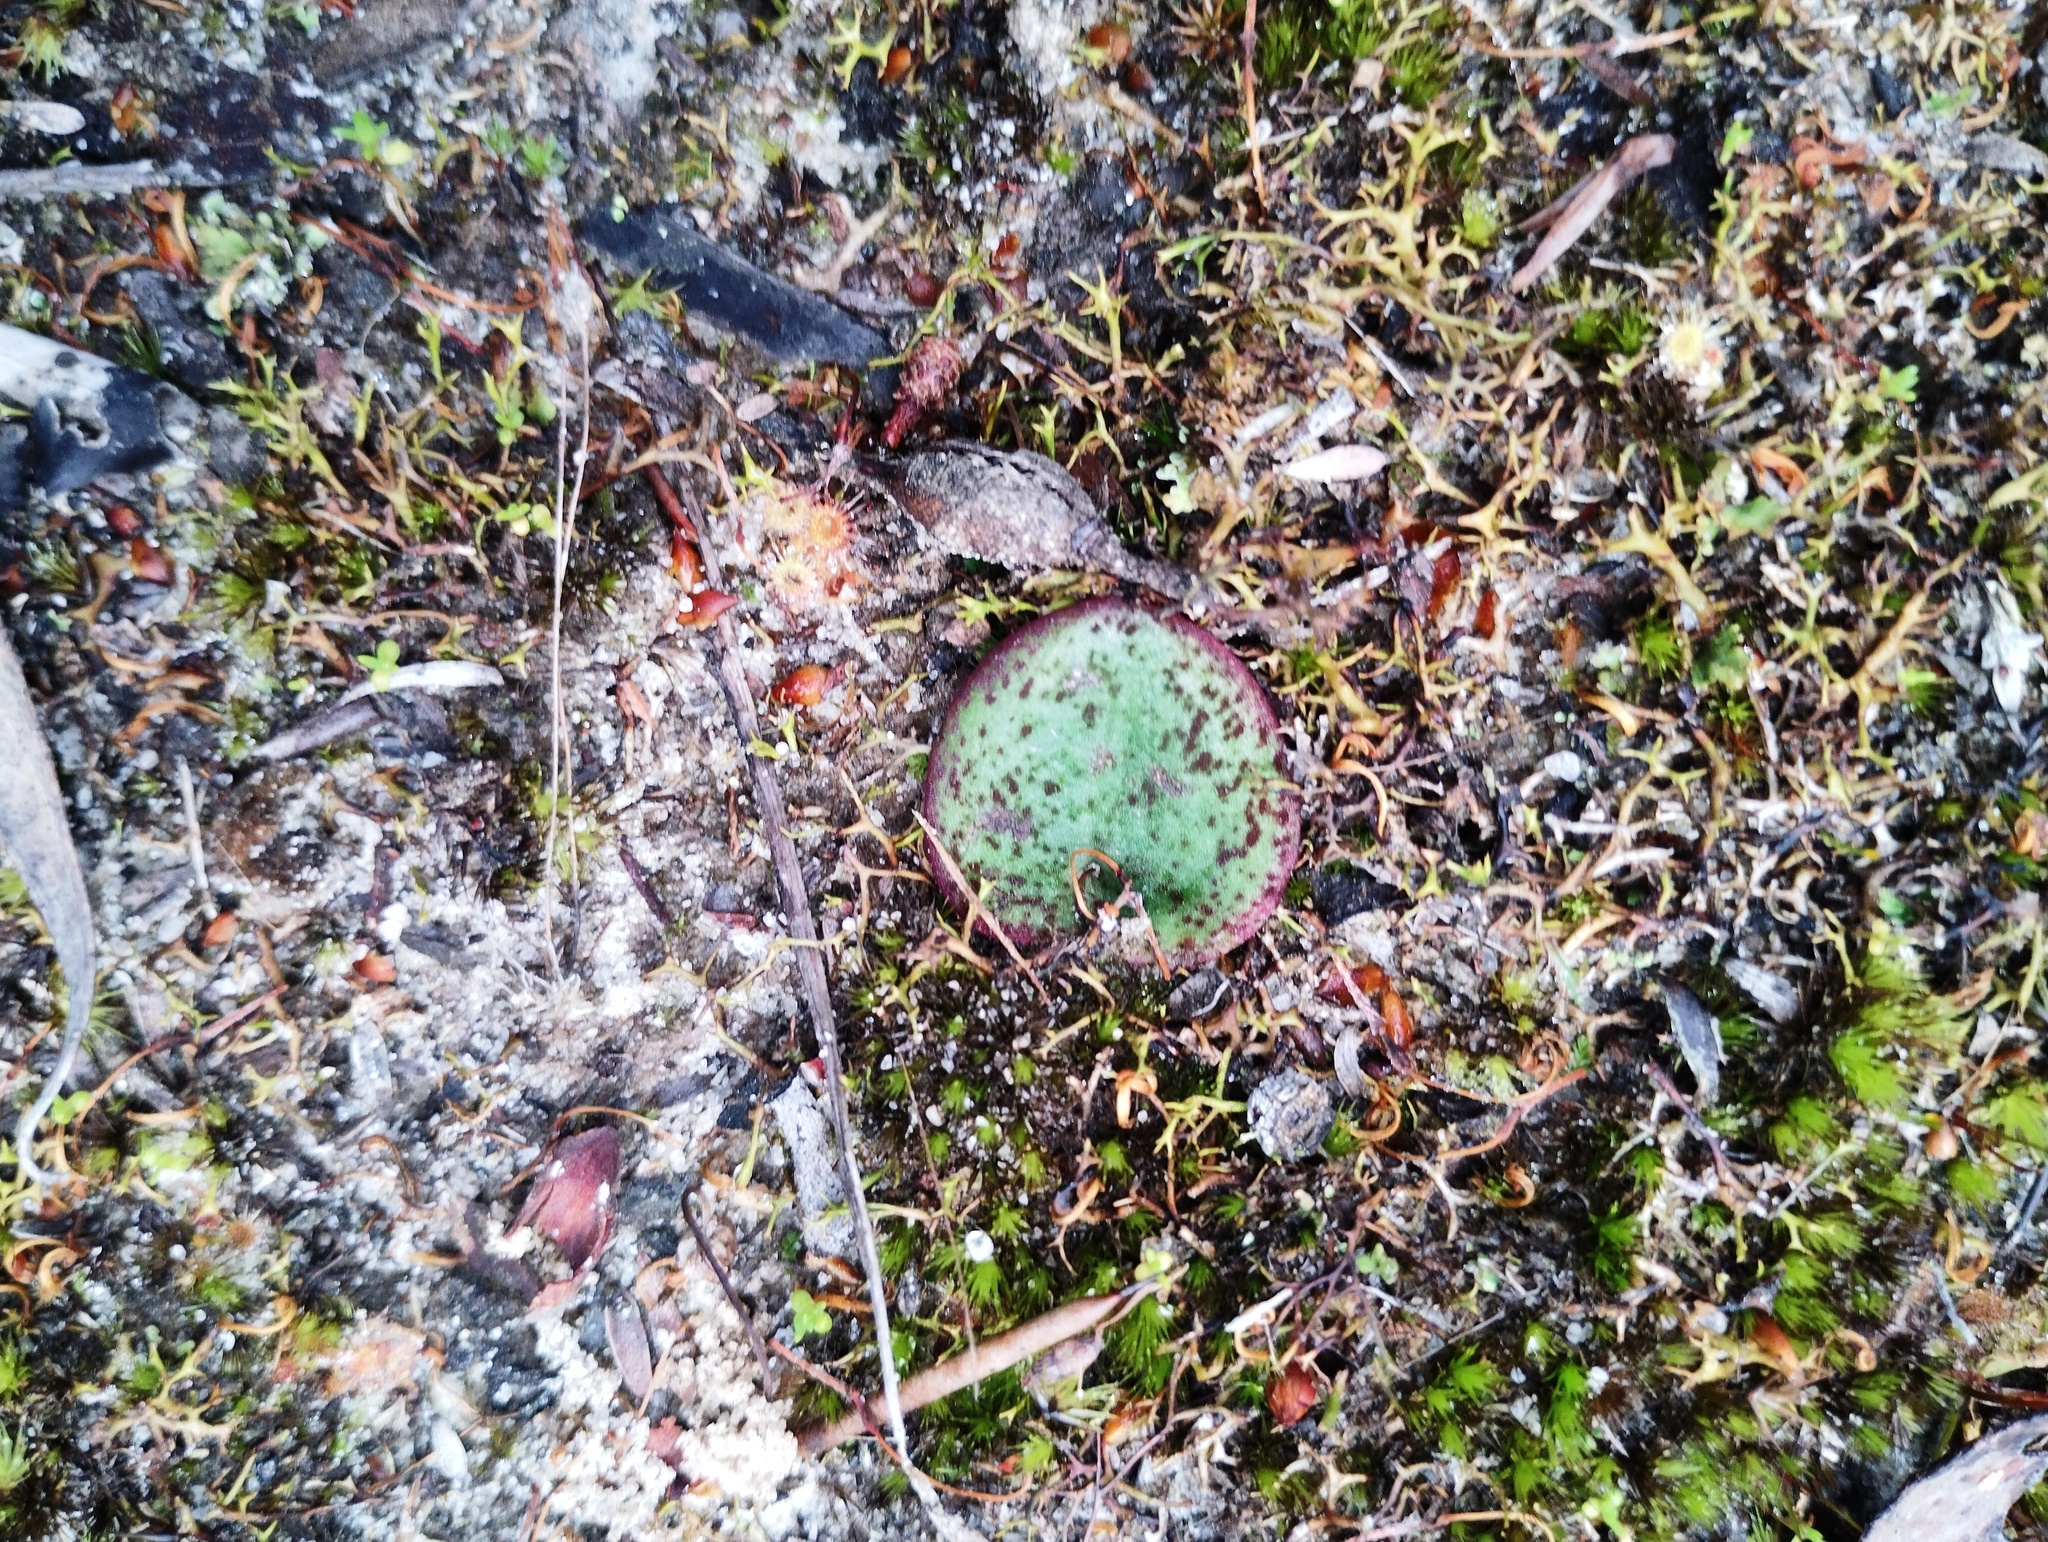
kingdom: Plantae
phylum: Tracheophyta
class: Liliopsida
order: Asparagales
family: Orchidaceae
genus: Pyrorchis
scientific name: Pyrorchis nigricans
